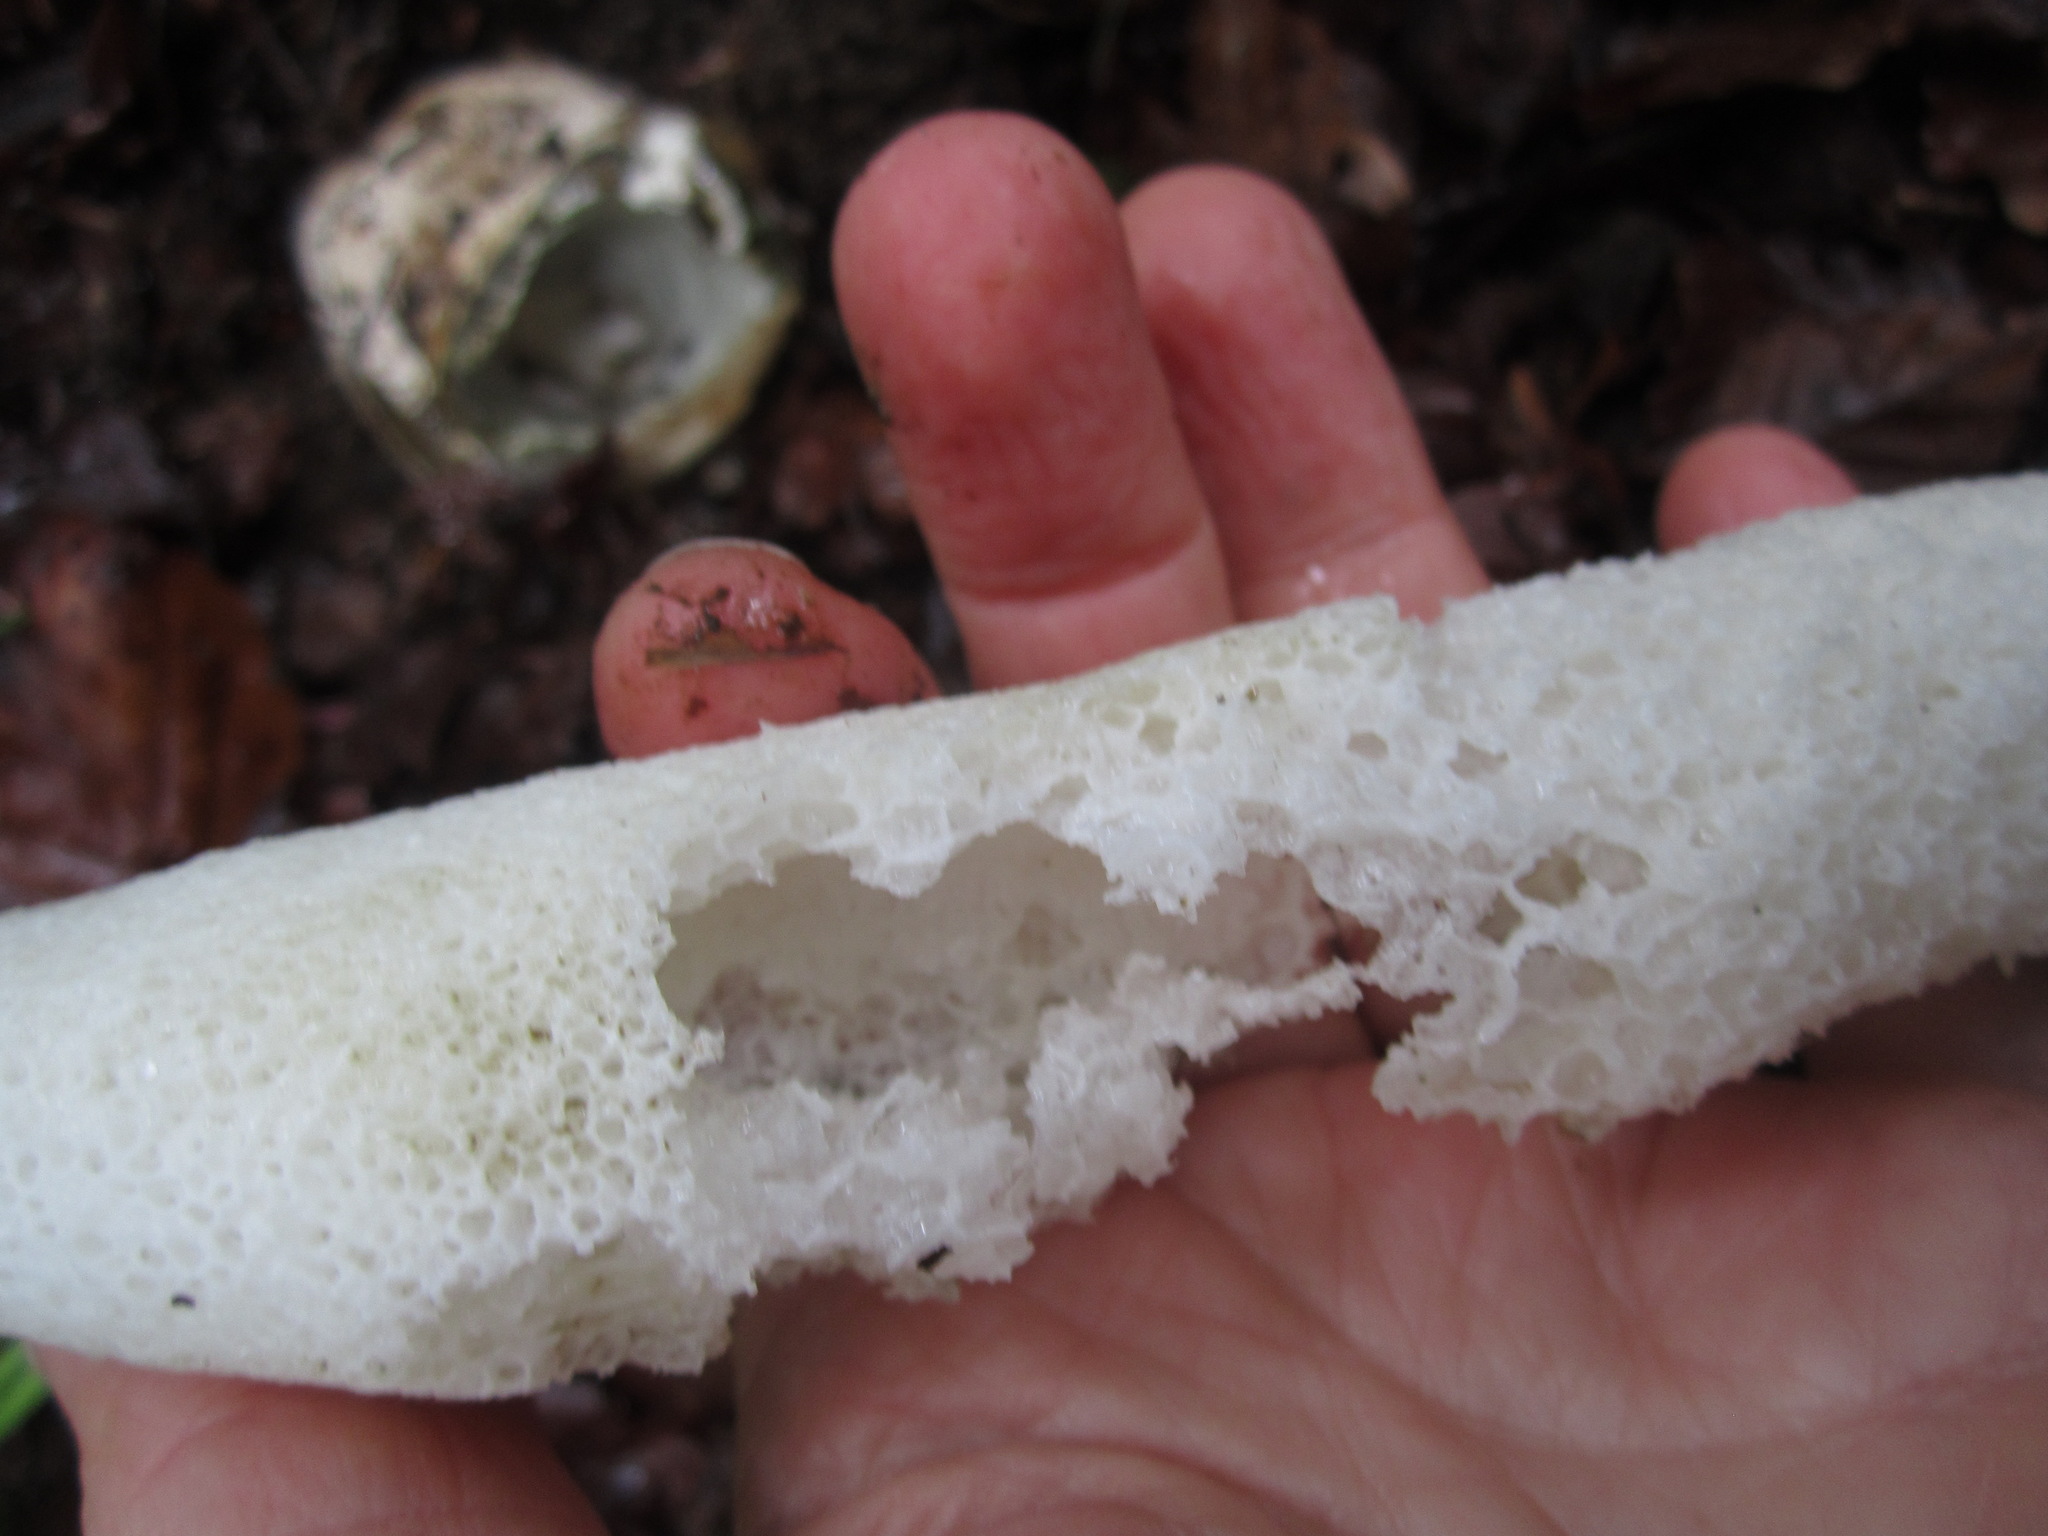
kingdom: Fungi
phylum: Basidiomycota
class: Agaricomycetes
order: Phallales
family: Phallaceae
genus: Phallus
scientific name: Phallus impudicus
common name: Common stinkhorn
